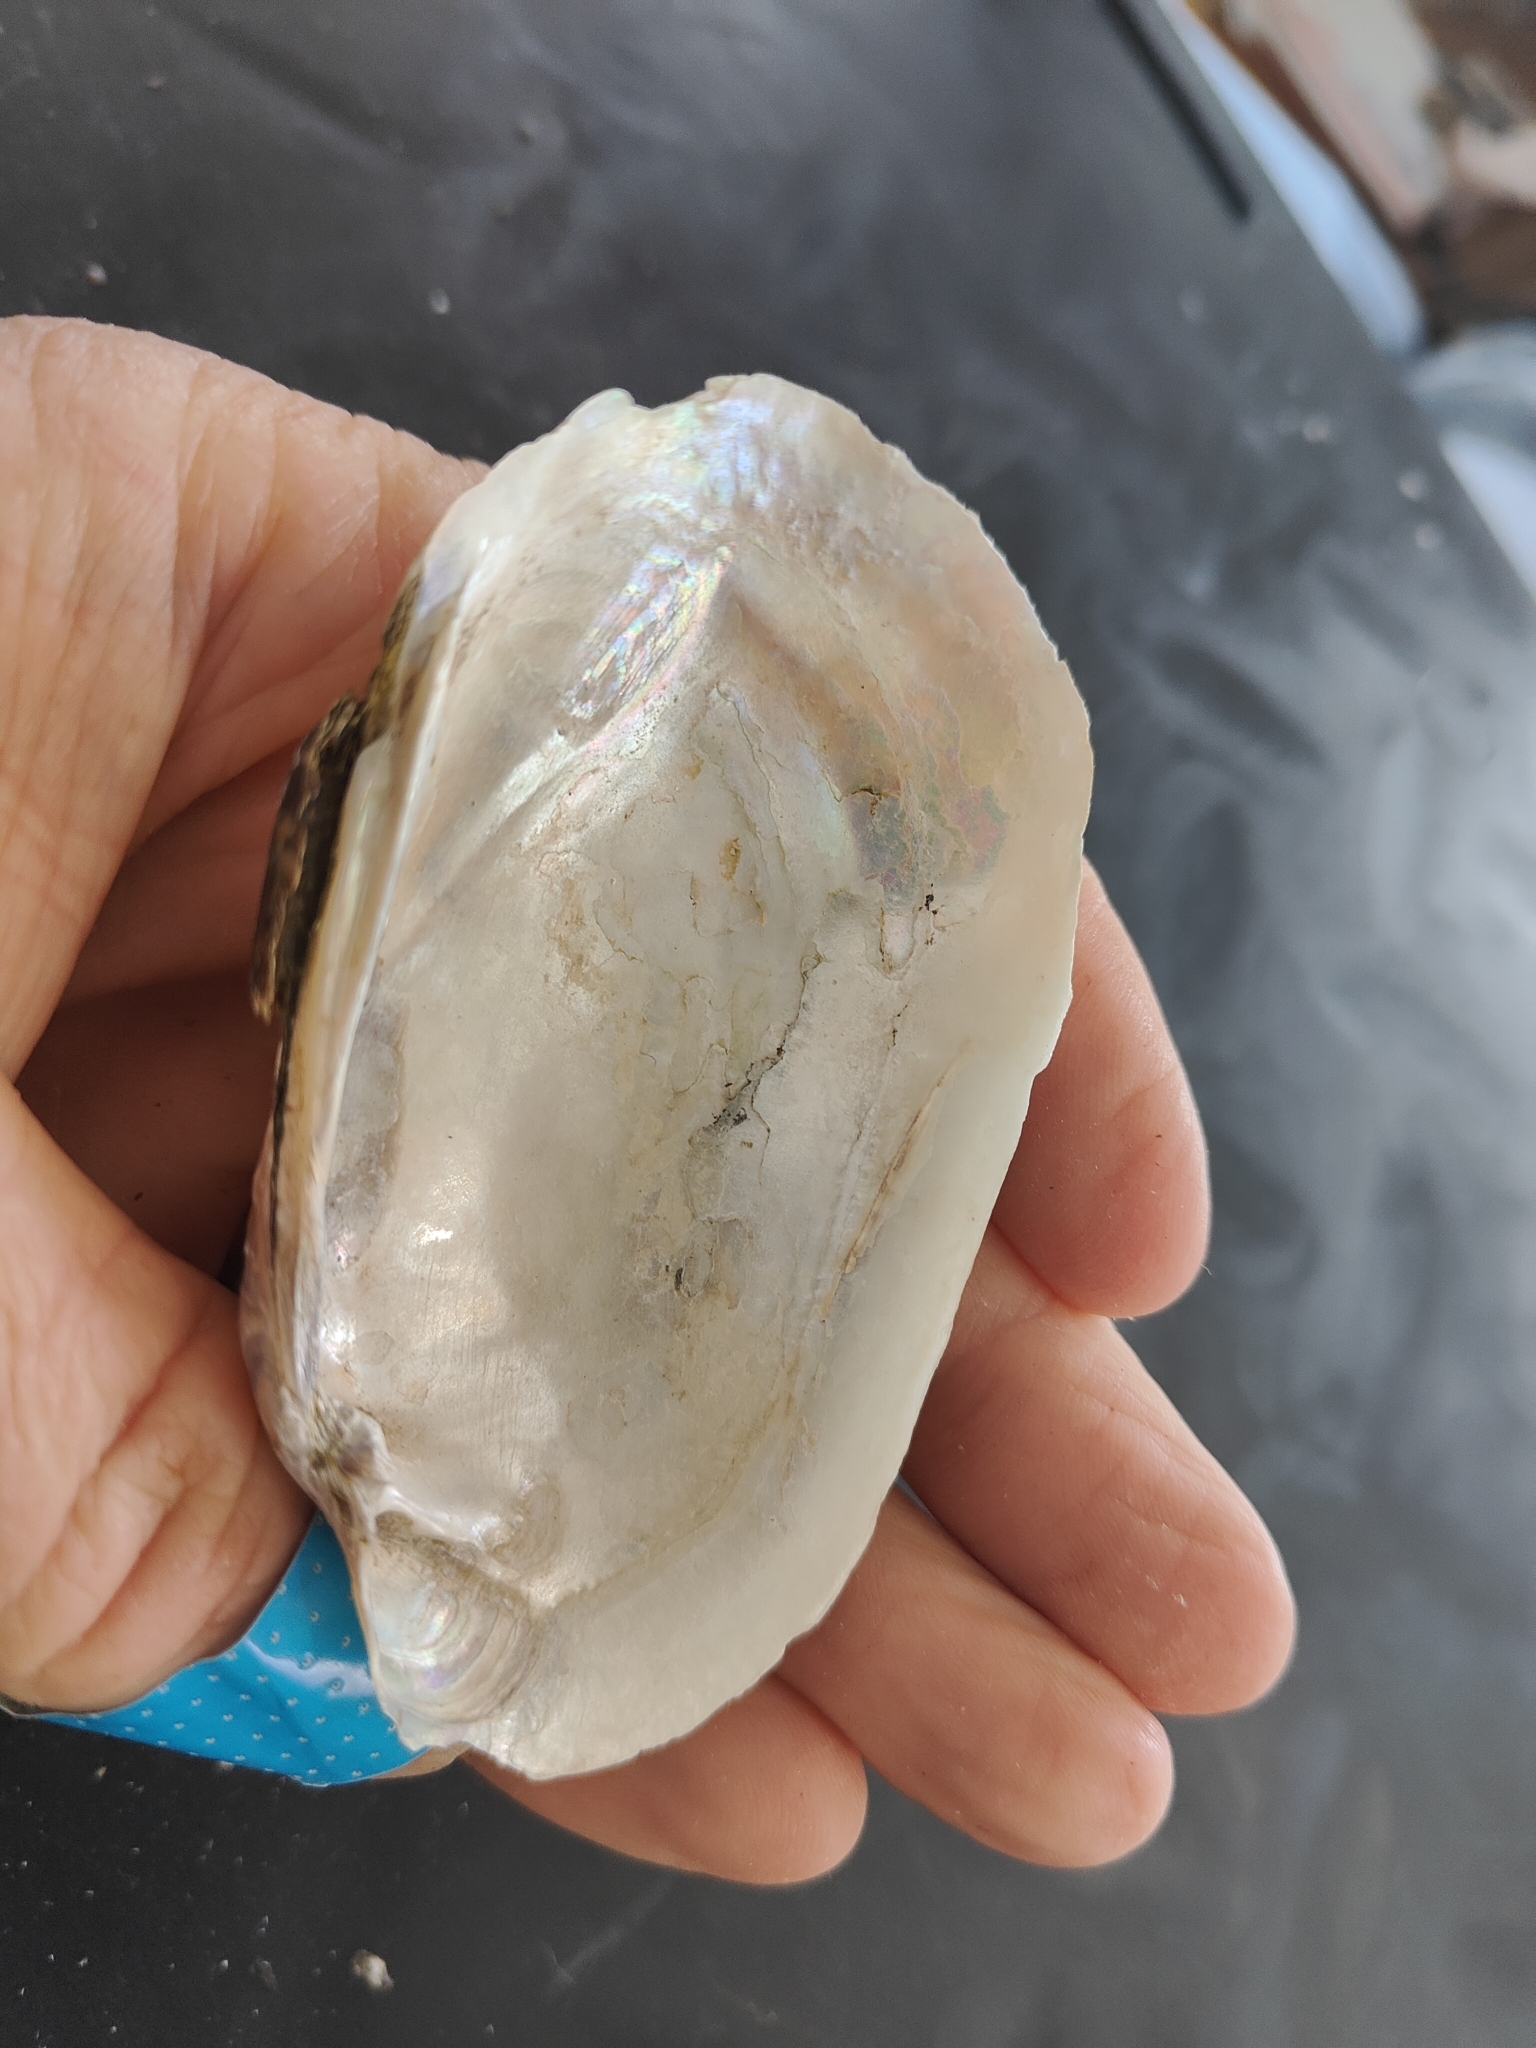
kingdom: Animalia
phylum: Mollusca
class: Bivalvia
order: Unionida
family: Unionidae
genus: Lampsilis
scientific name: Lampsilis siliquoidea
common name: Fatmucket
